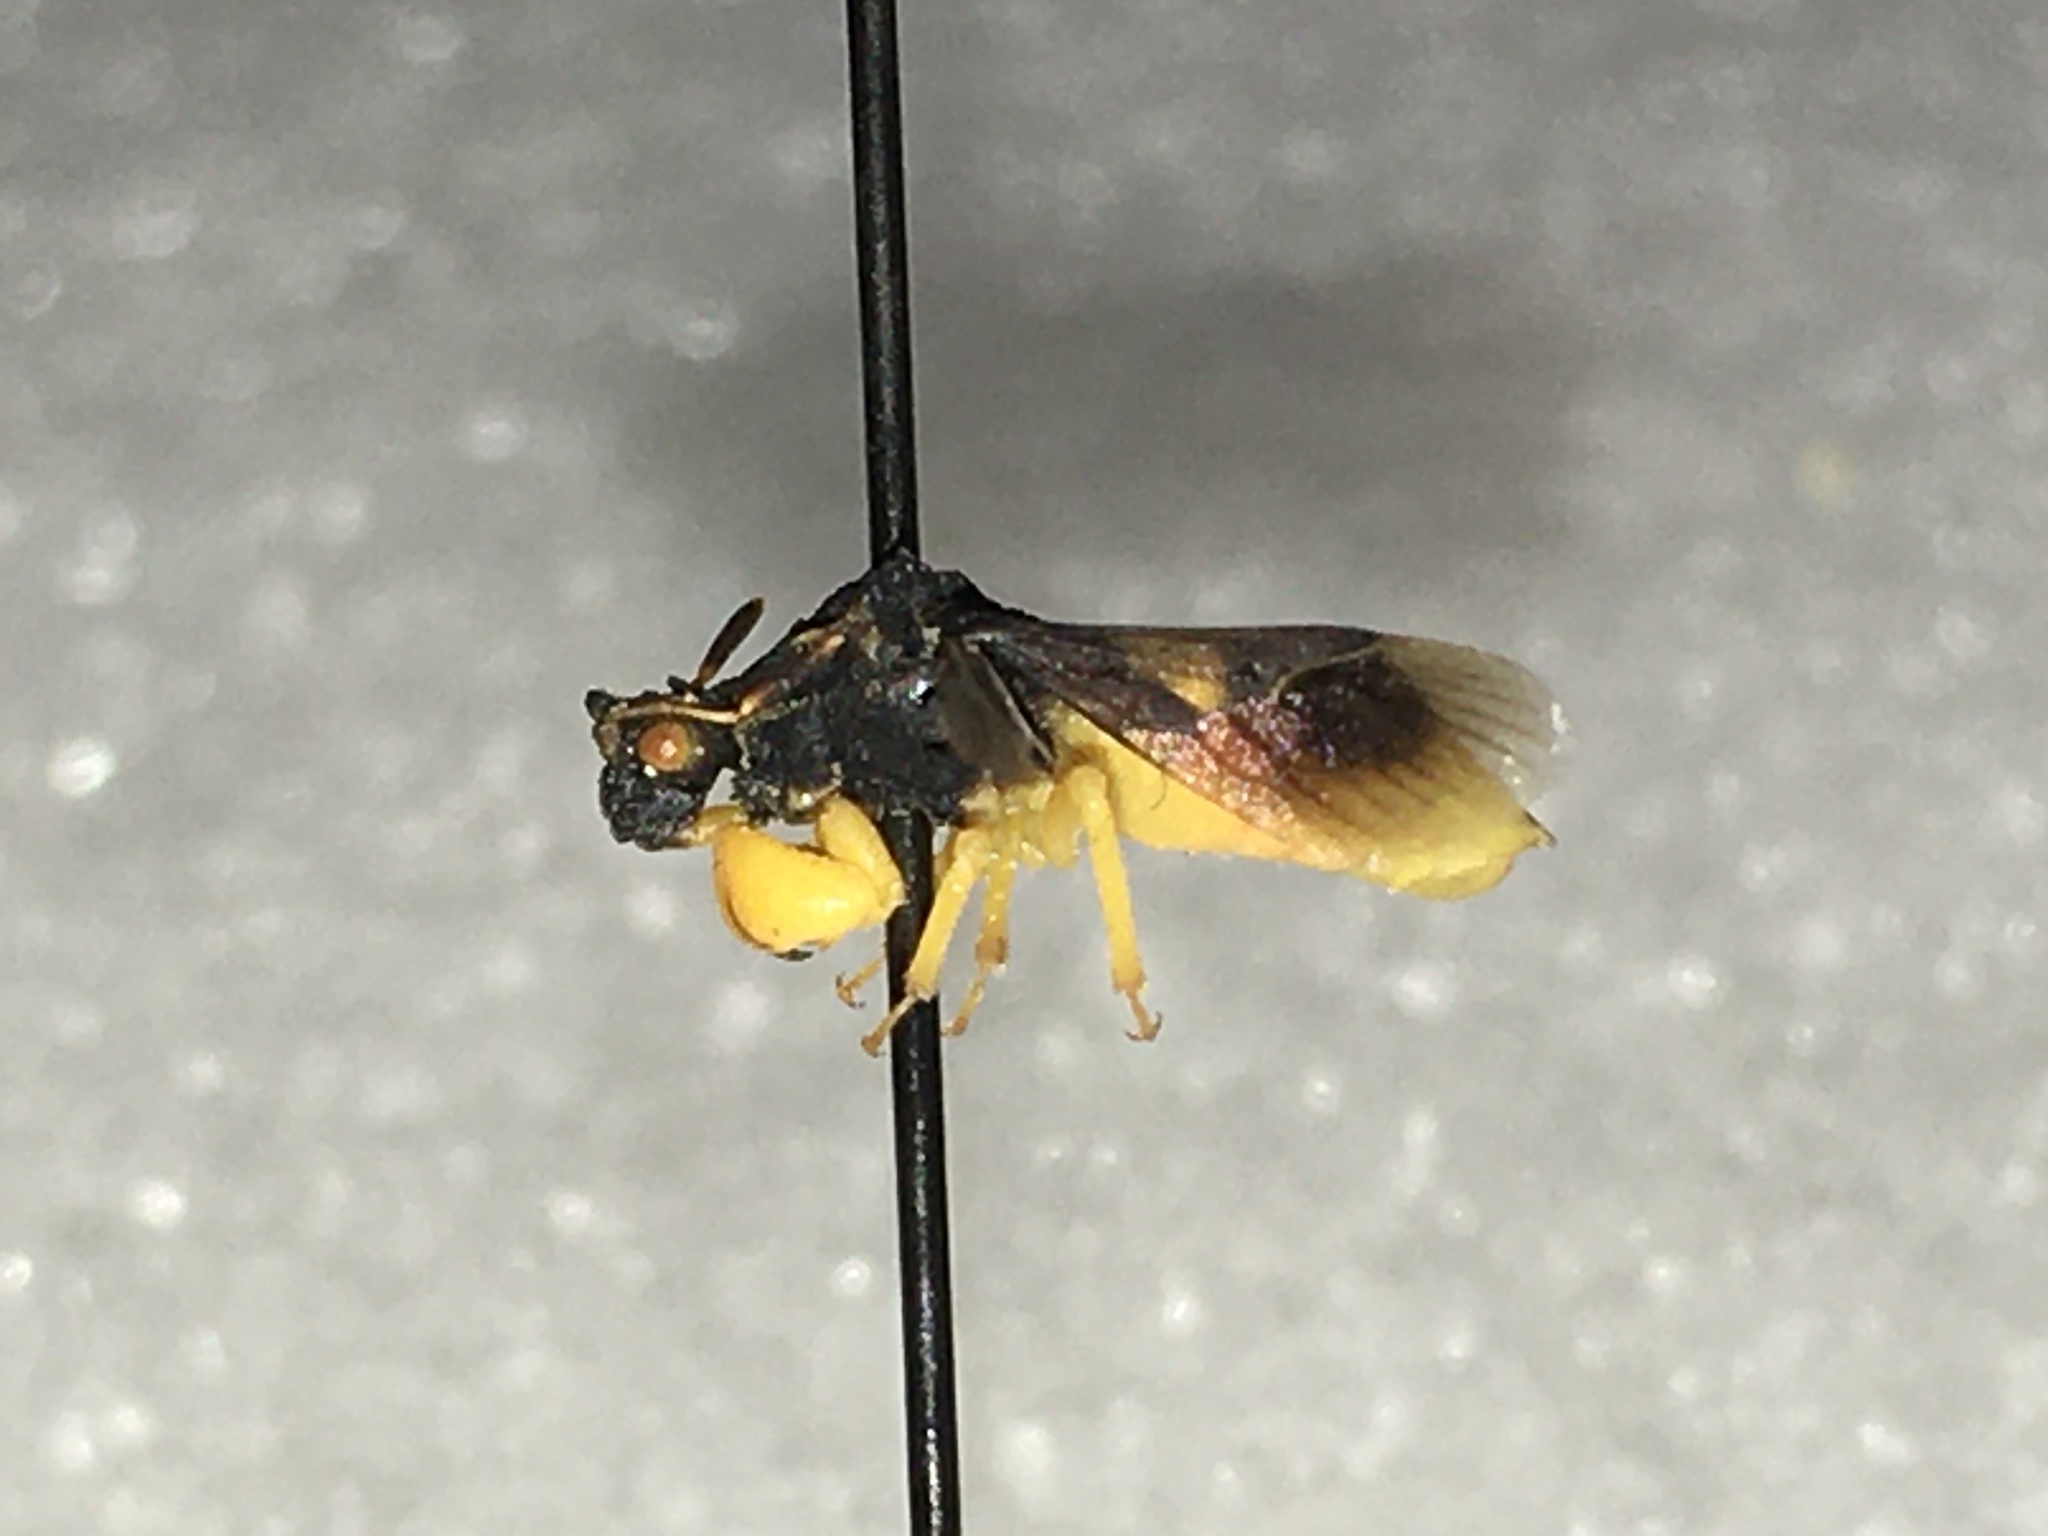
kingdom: Animalia
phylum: Arthropoda
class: Insecta
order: Hemiptera
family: Reduviidae
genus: Phymata
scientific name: Phymata pennsylvanica
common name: Pennsylvania ambush bug
